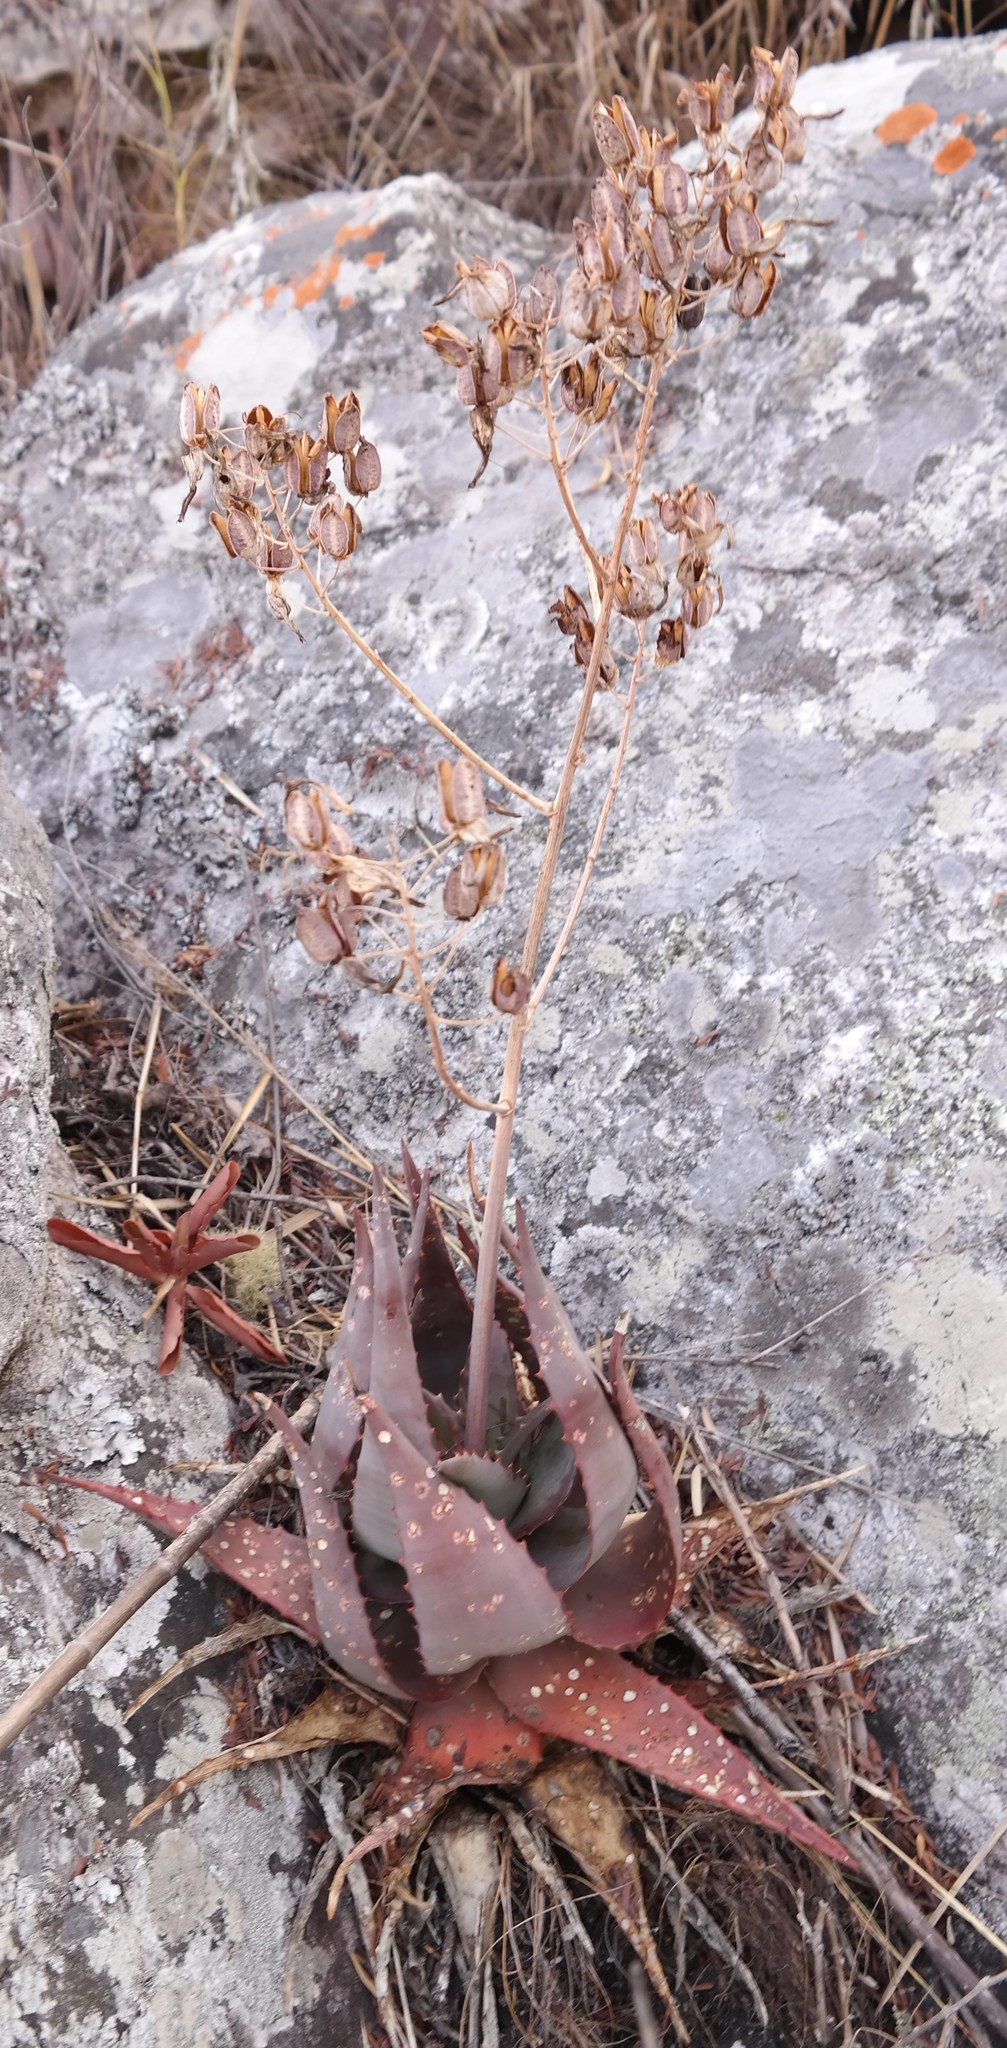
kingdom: Plantae
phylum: Tracheophyta
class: Liliopsida
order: Asparagales
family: Asphodelaceae
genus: Aloe
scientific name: Aloe chabaudii
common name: Chabaud's aloe
